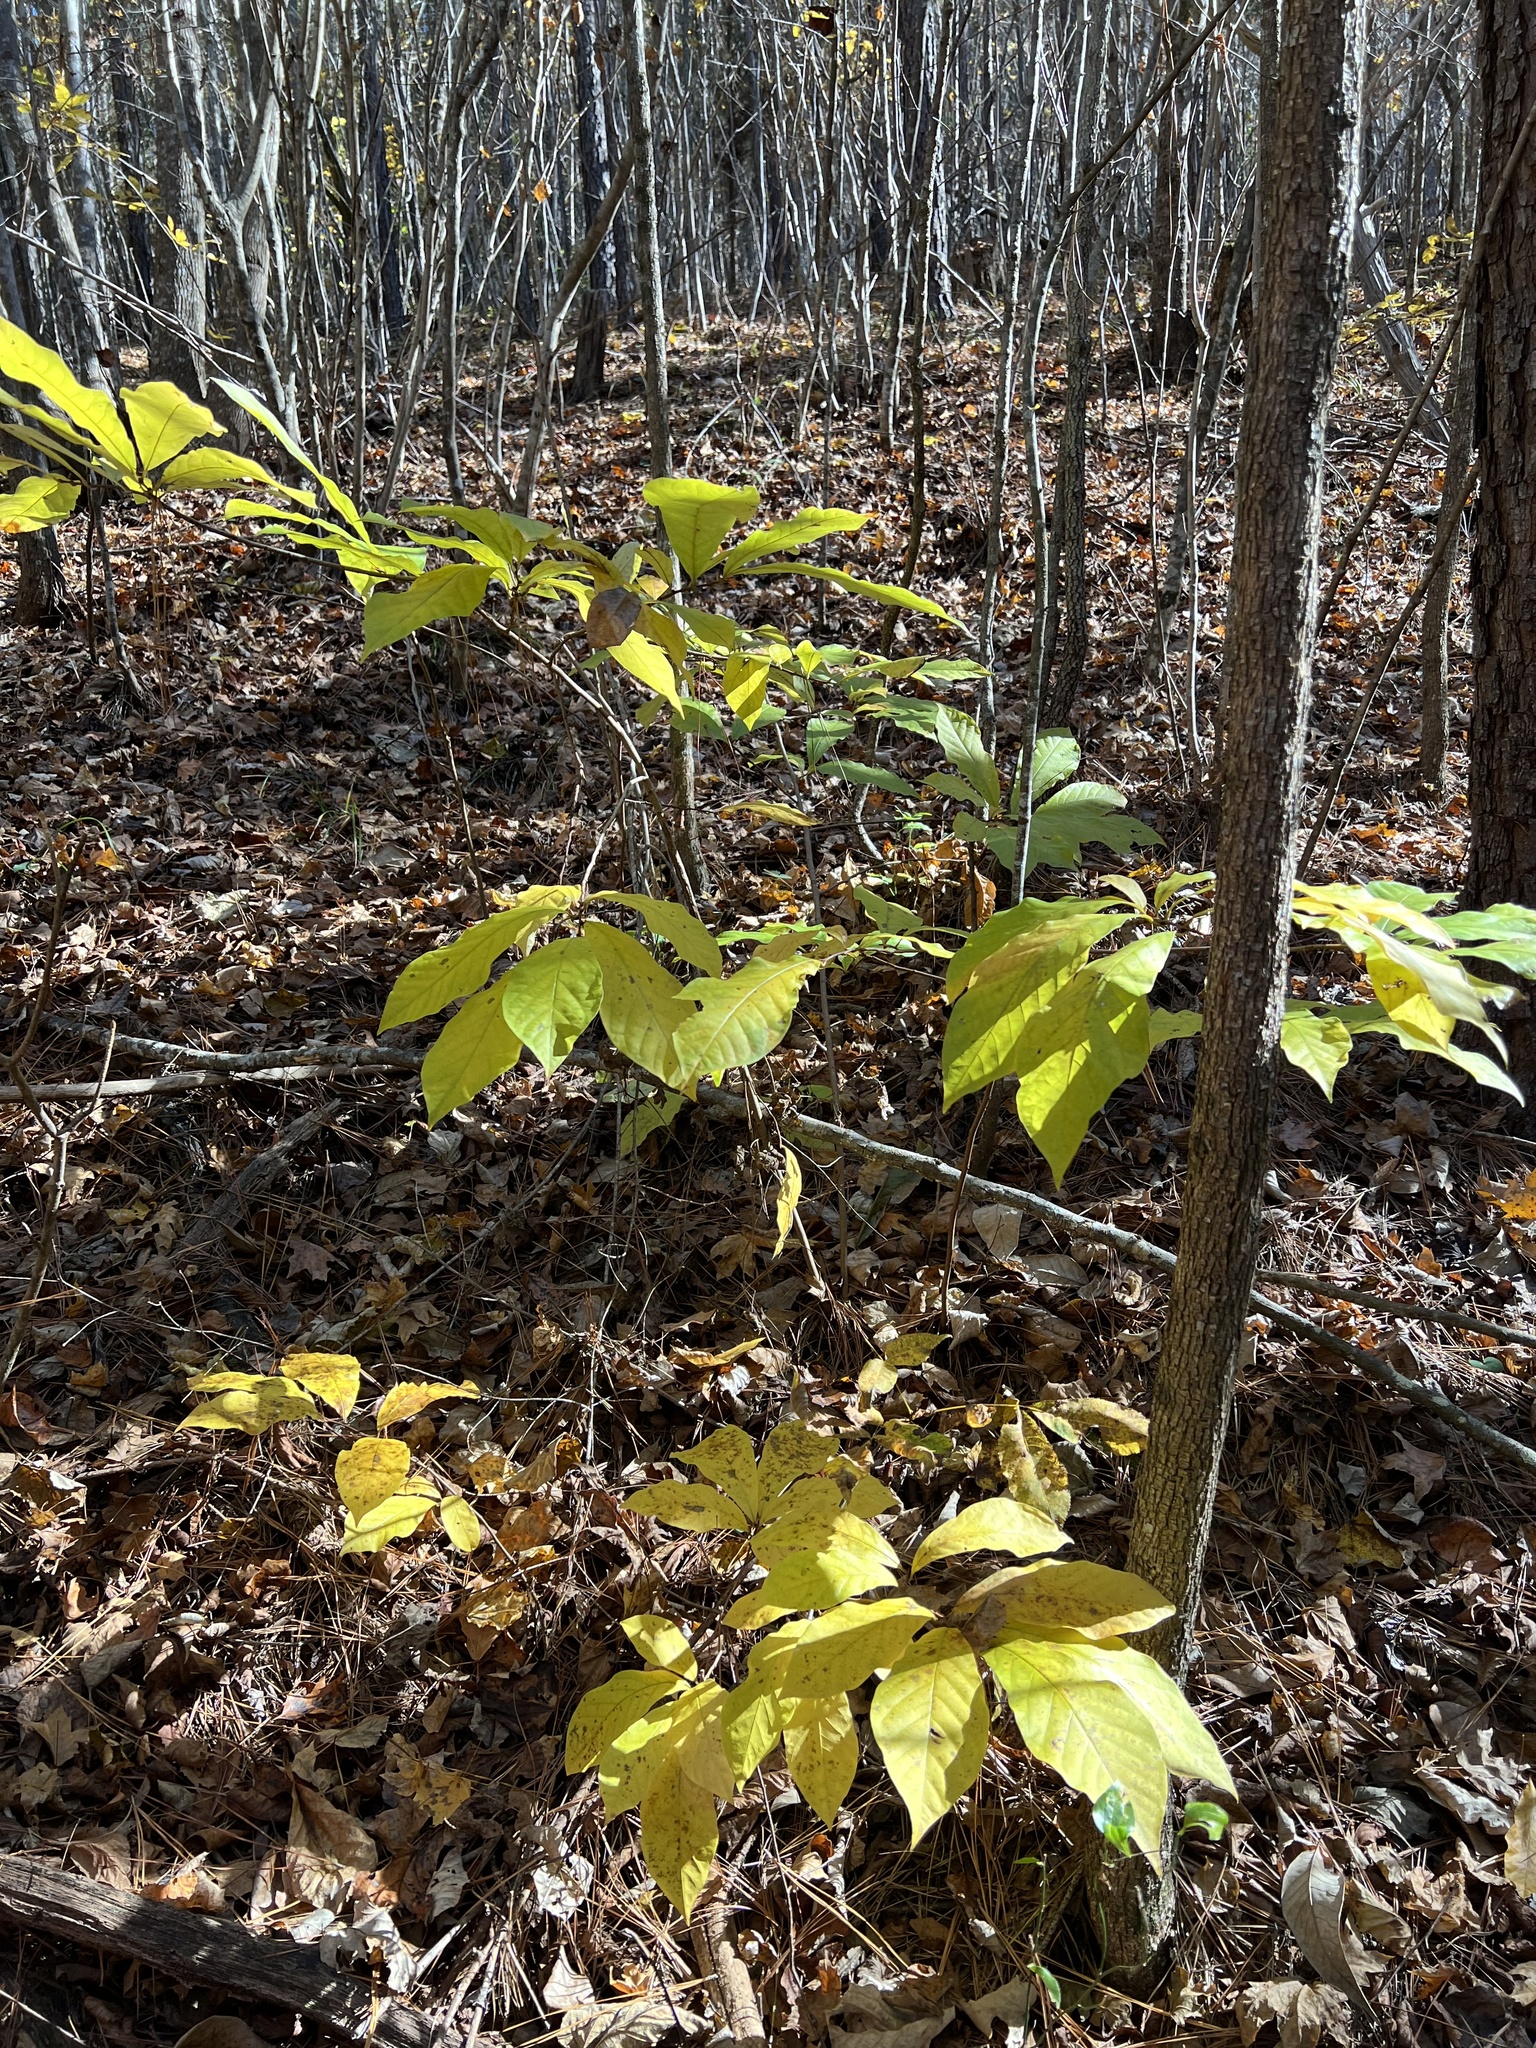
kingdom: Plantae
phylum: Tracheophyta
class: Magnoliopsida
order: Magnoliales
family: Annonaceae
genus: Asimina
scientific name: Asimina triloba
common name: Dog-banana
